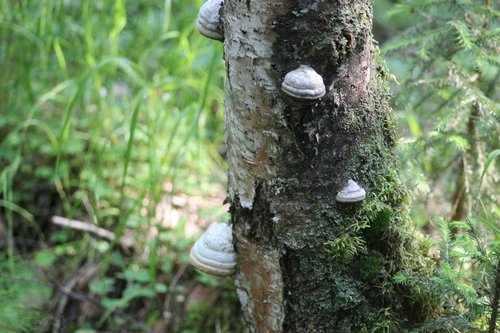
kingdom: Fungi
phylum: Basidiomycota
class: Agaricomycetes
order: Polyporales
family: Polyporaceae
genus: Fomes
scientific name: Fomes fomentarius
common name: Hoof fungus
